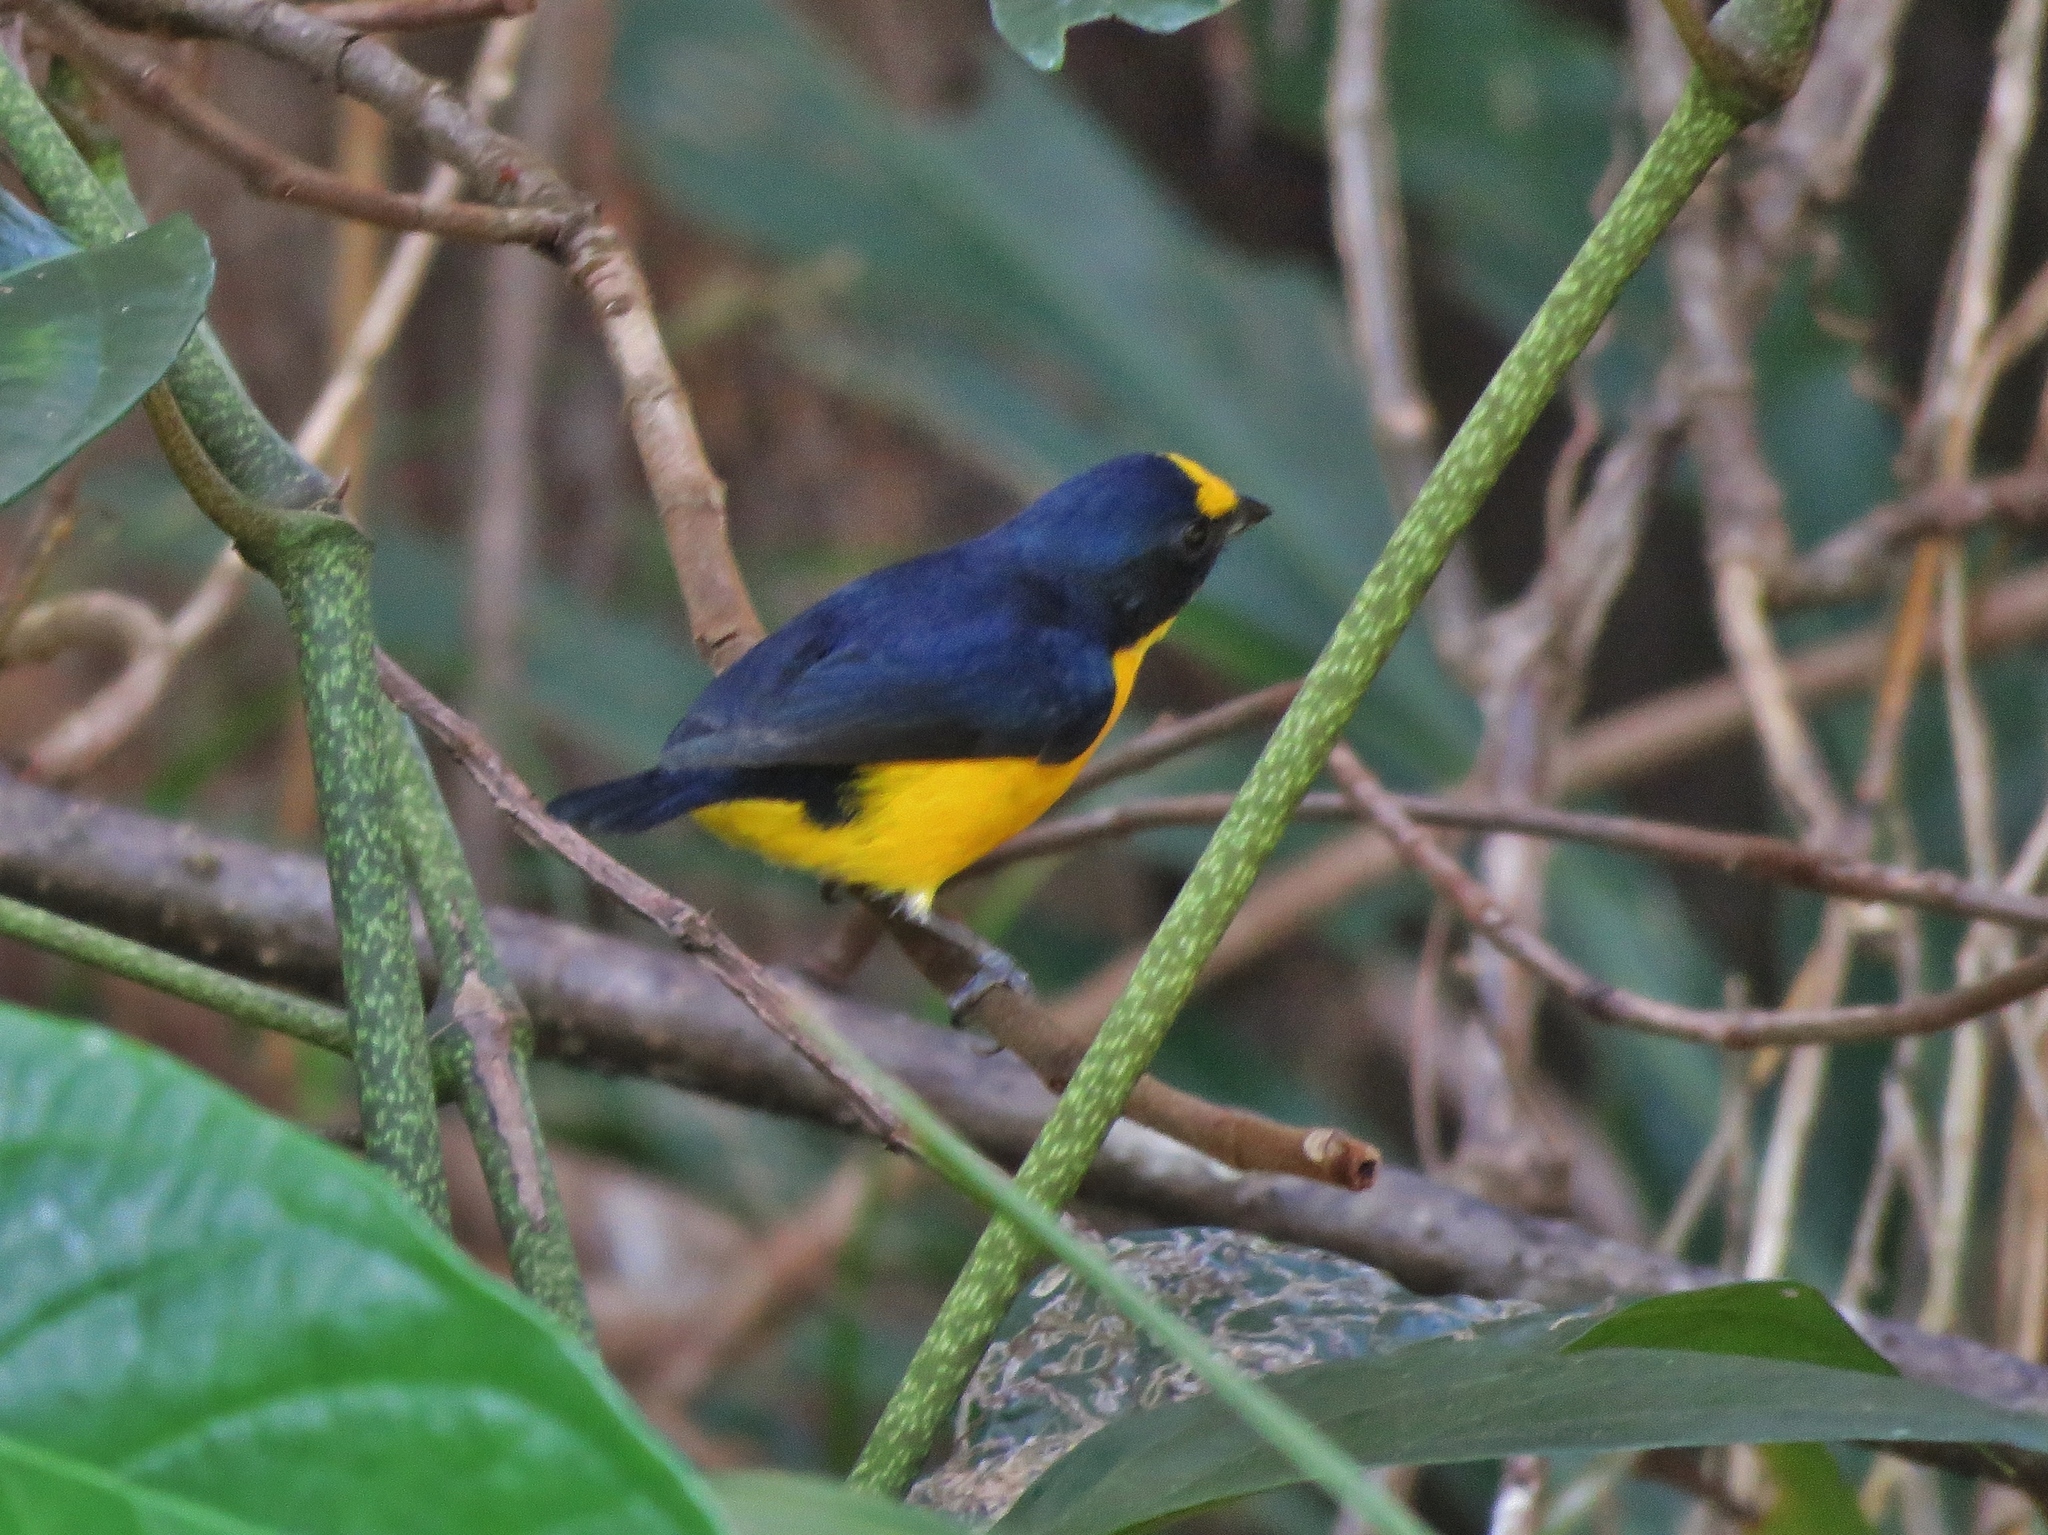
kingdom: Animalia
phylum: Chordata
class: Aves
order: Passeriformes
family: Fringillidae
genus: Euphonia
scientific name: Euphonia hirundinacea
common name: Yellow-throated euphonia
